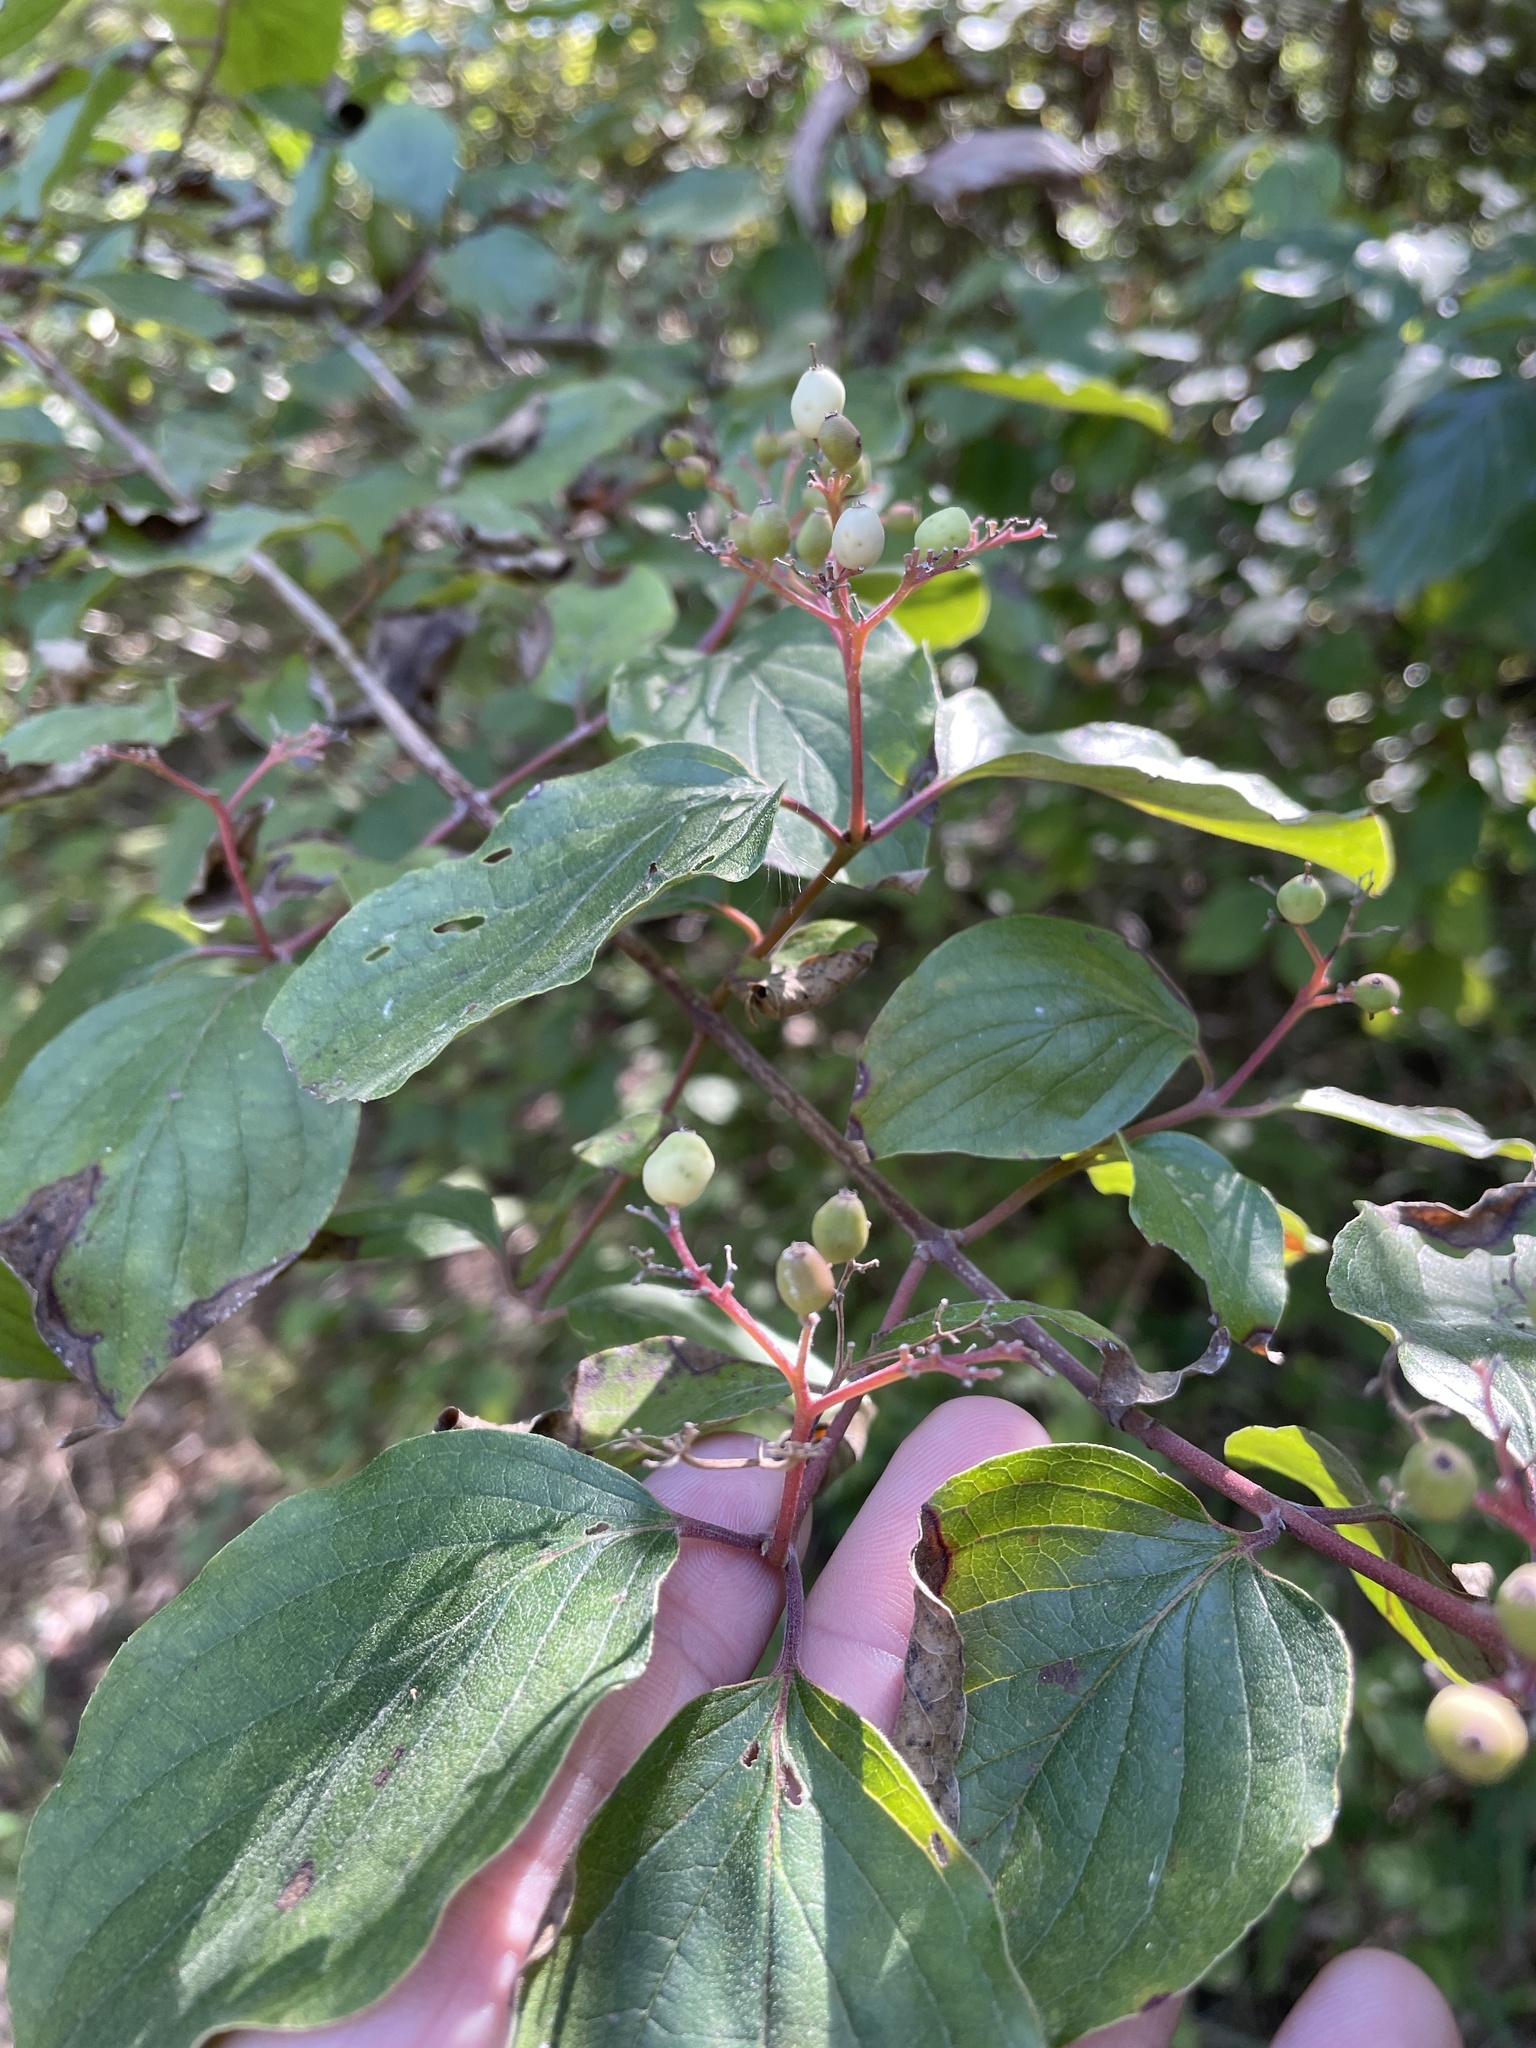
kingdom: Plantae
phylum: Tracheophyta
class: Magnoliopsida
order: Cornales
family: Cornaceae
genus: Cornus
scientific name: Cornus drummondii
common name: Rough-leaf dogwood
